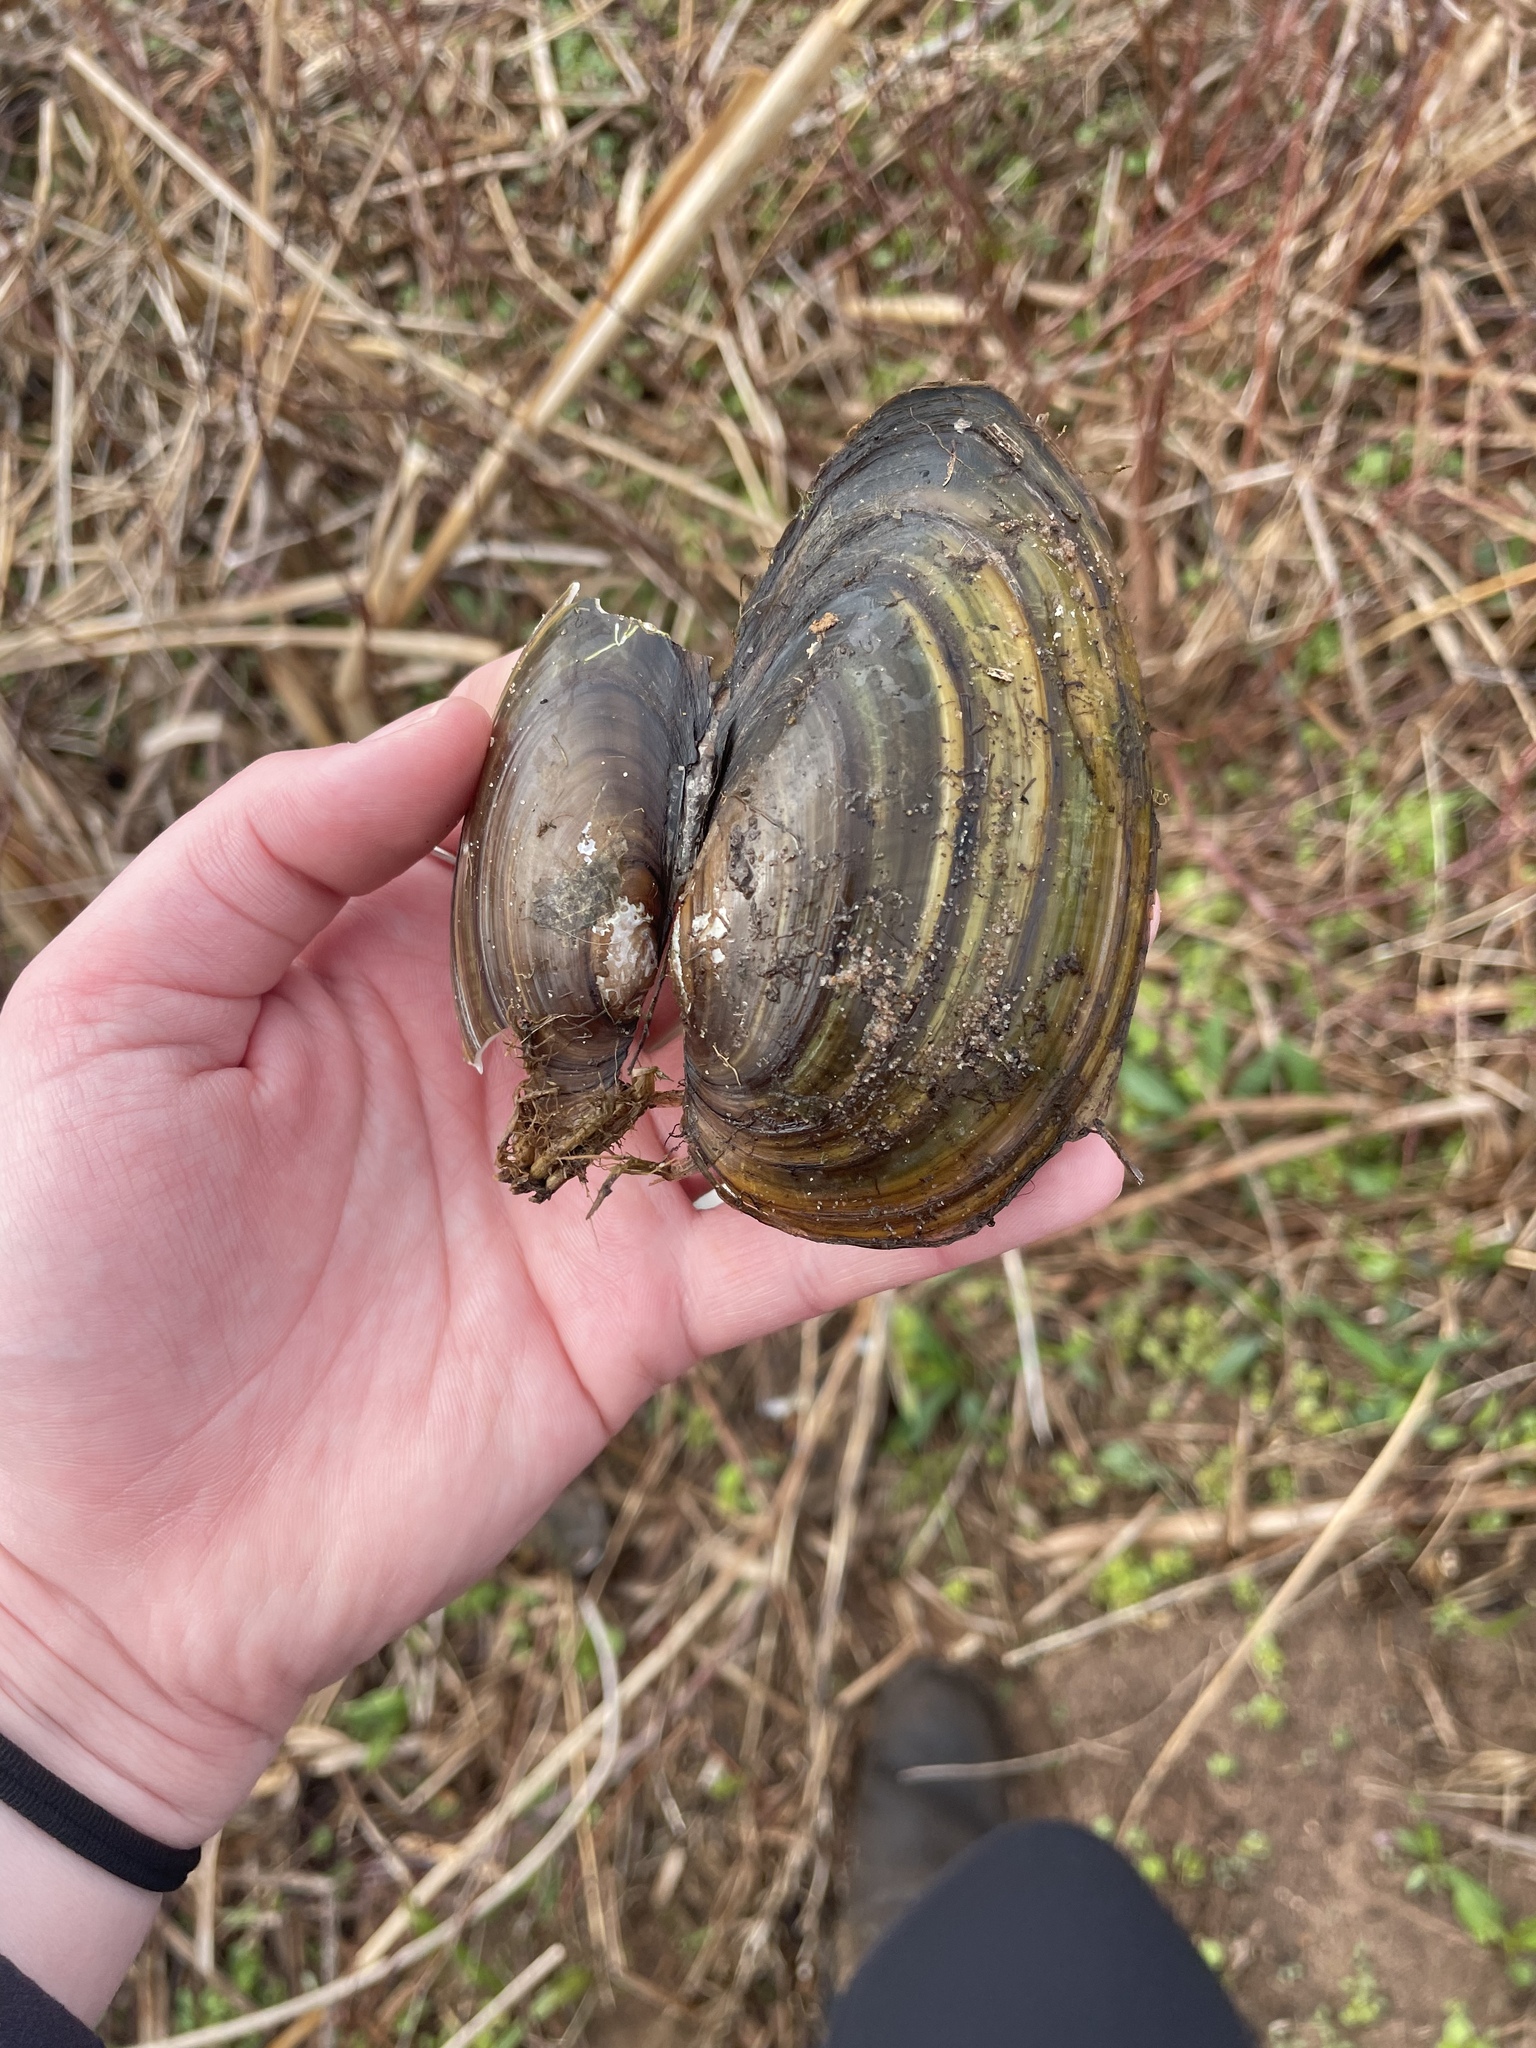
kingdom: Animalia
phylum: Mollusca
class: Bivalvia
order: Unionida
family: Unionidae
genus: Pyganodon
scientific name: Pyganodon cataracta
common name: Eastern floater
